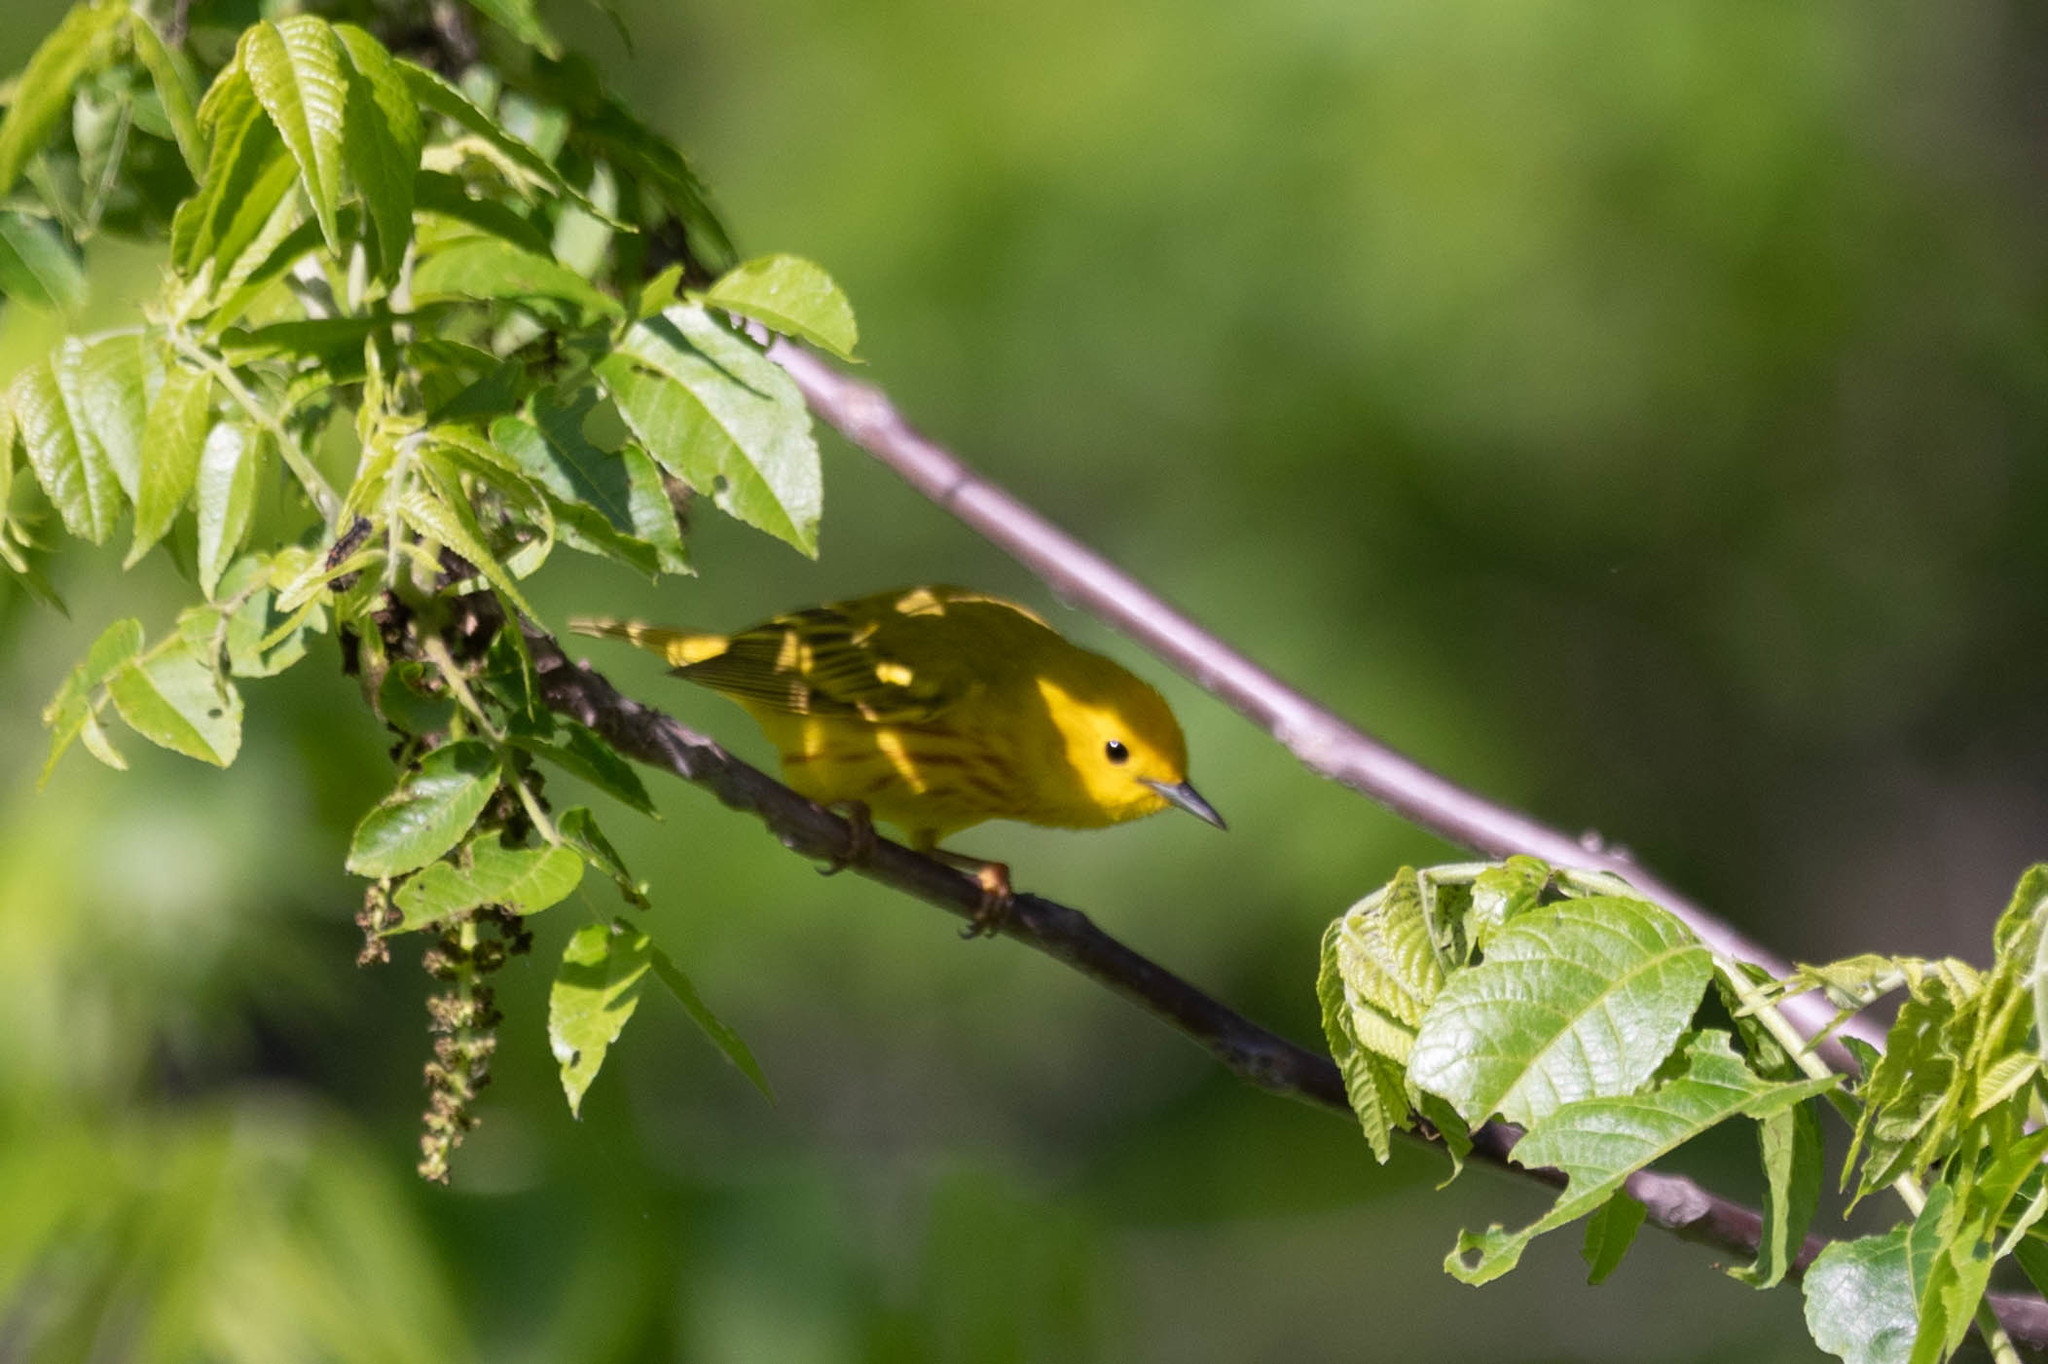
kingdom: Animalia
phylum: Chordata
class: Aves
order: Passeriformes
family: Parulidae
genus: Setophaga
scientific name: Setophaga petechia
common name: Yellow warbler
